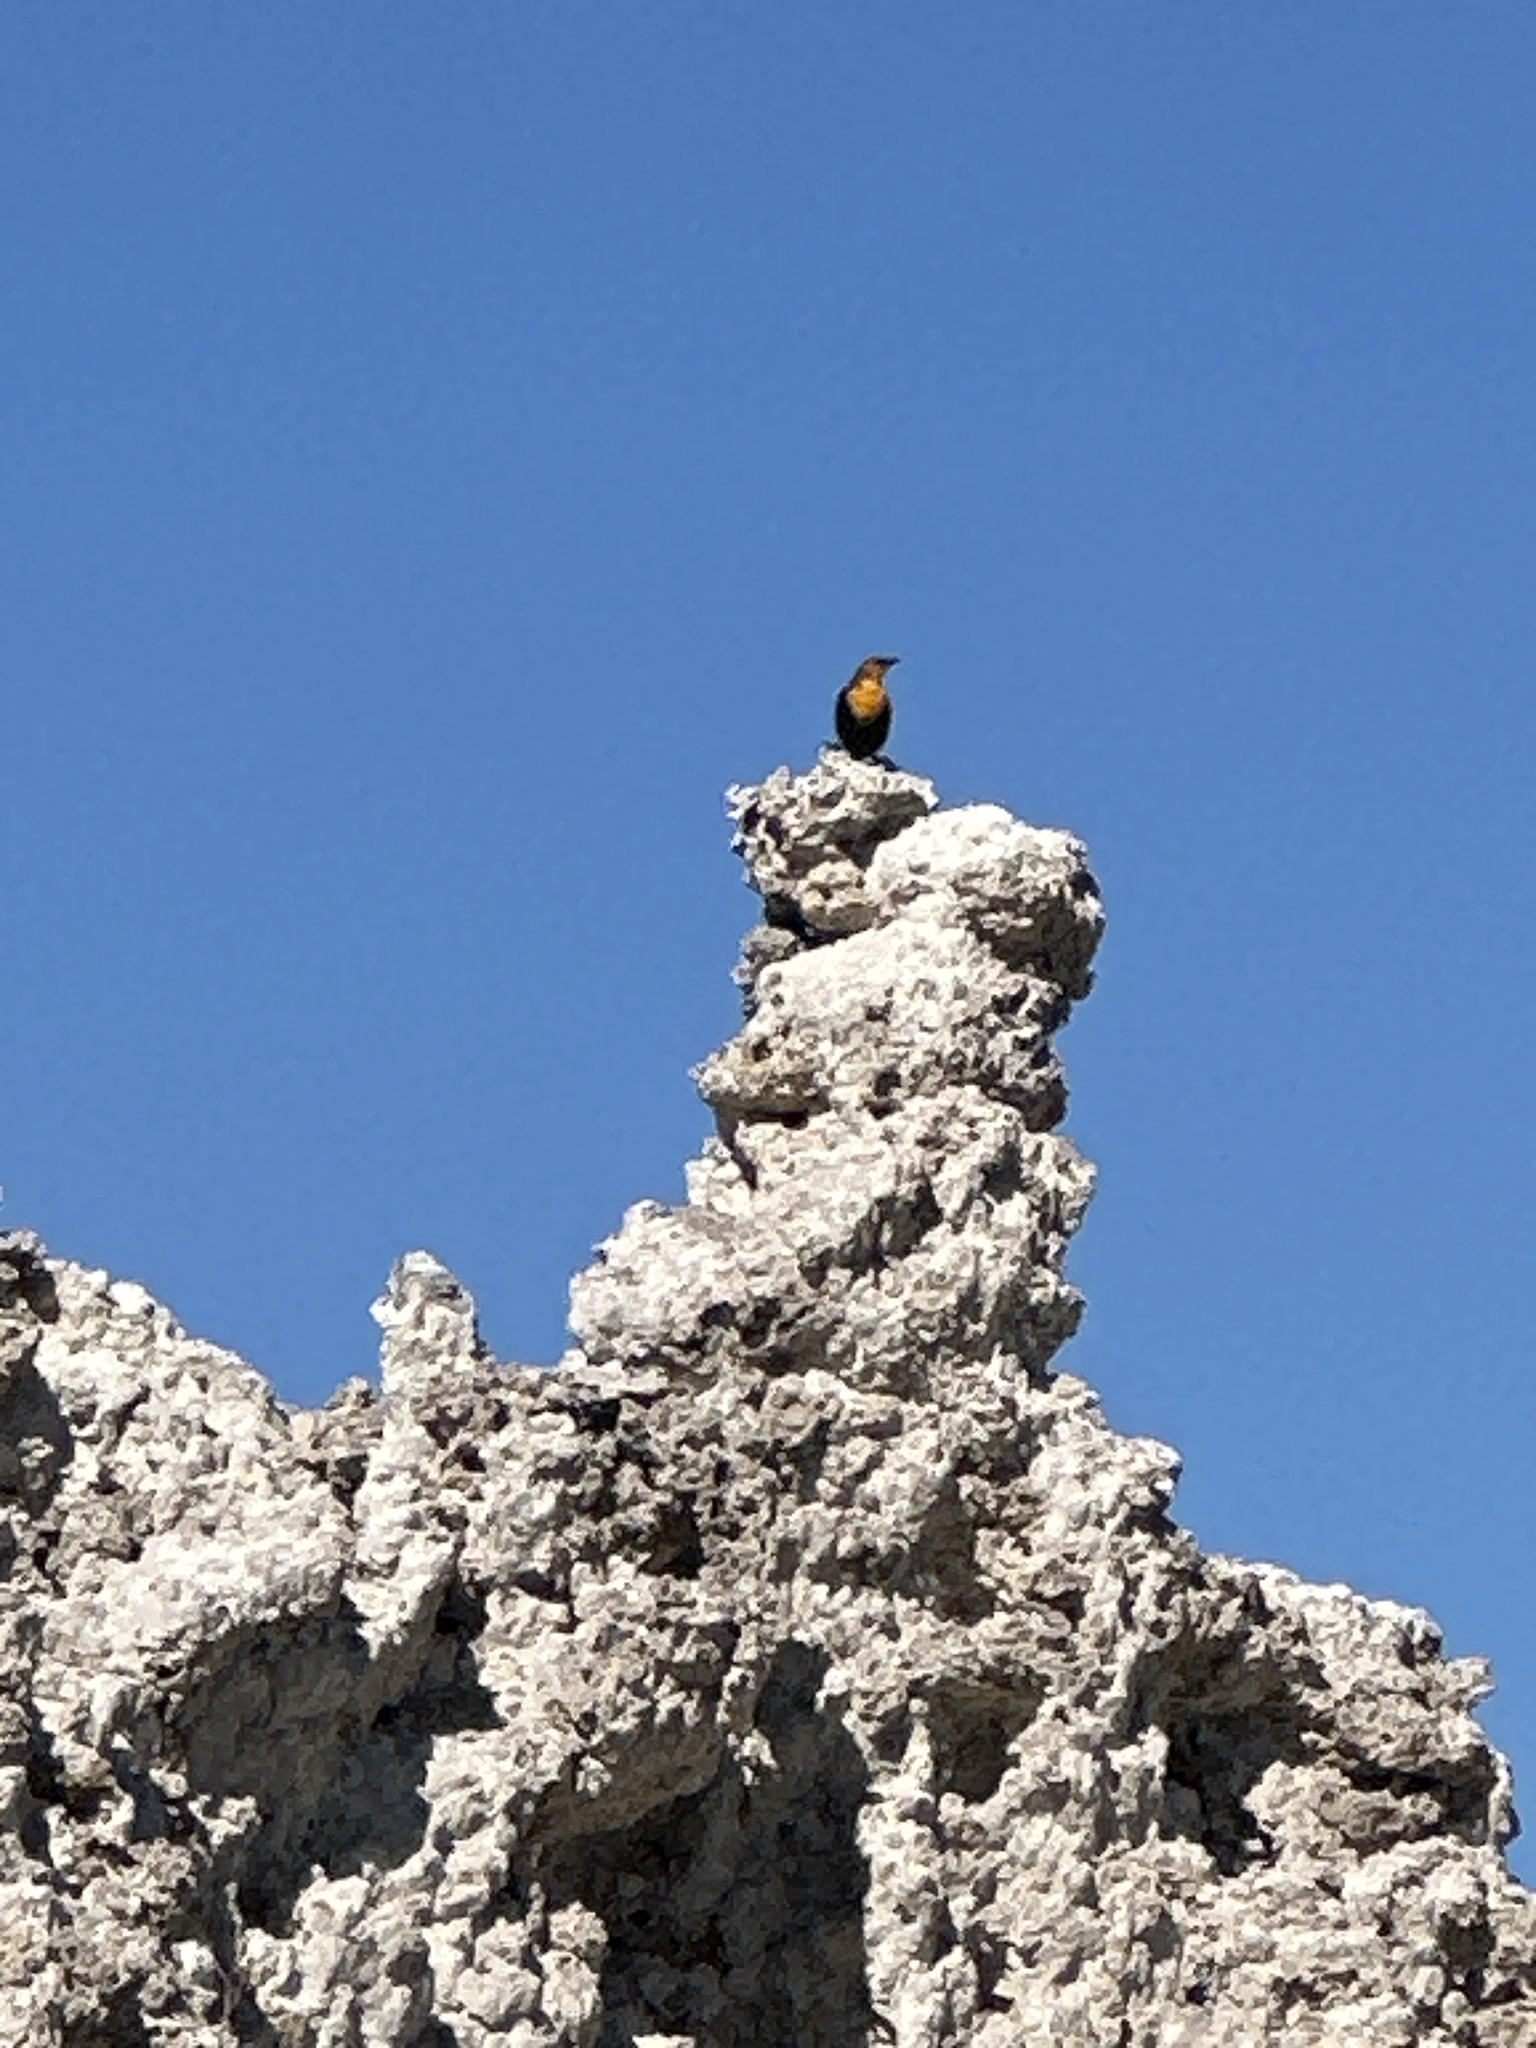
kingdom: Animalia
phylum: Chordata
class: Aves
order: Passeriformes
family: Icteridae
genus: Xanthocephalus
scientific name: Xanthocephalus xanthocephalus
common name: Yellow-headed blackbird
